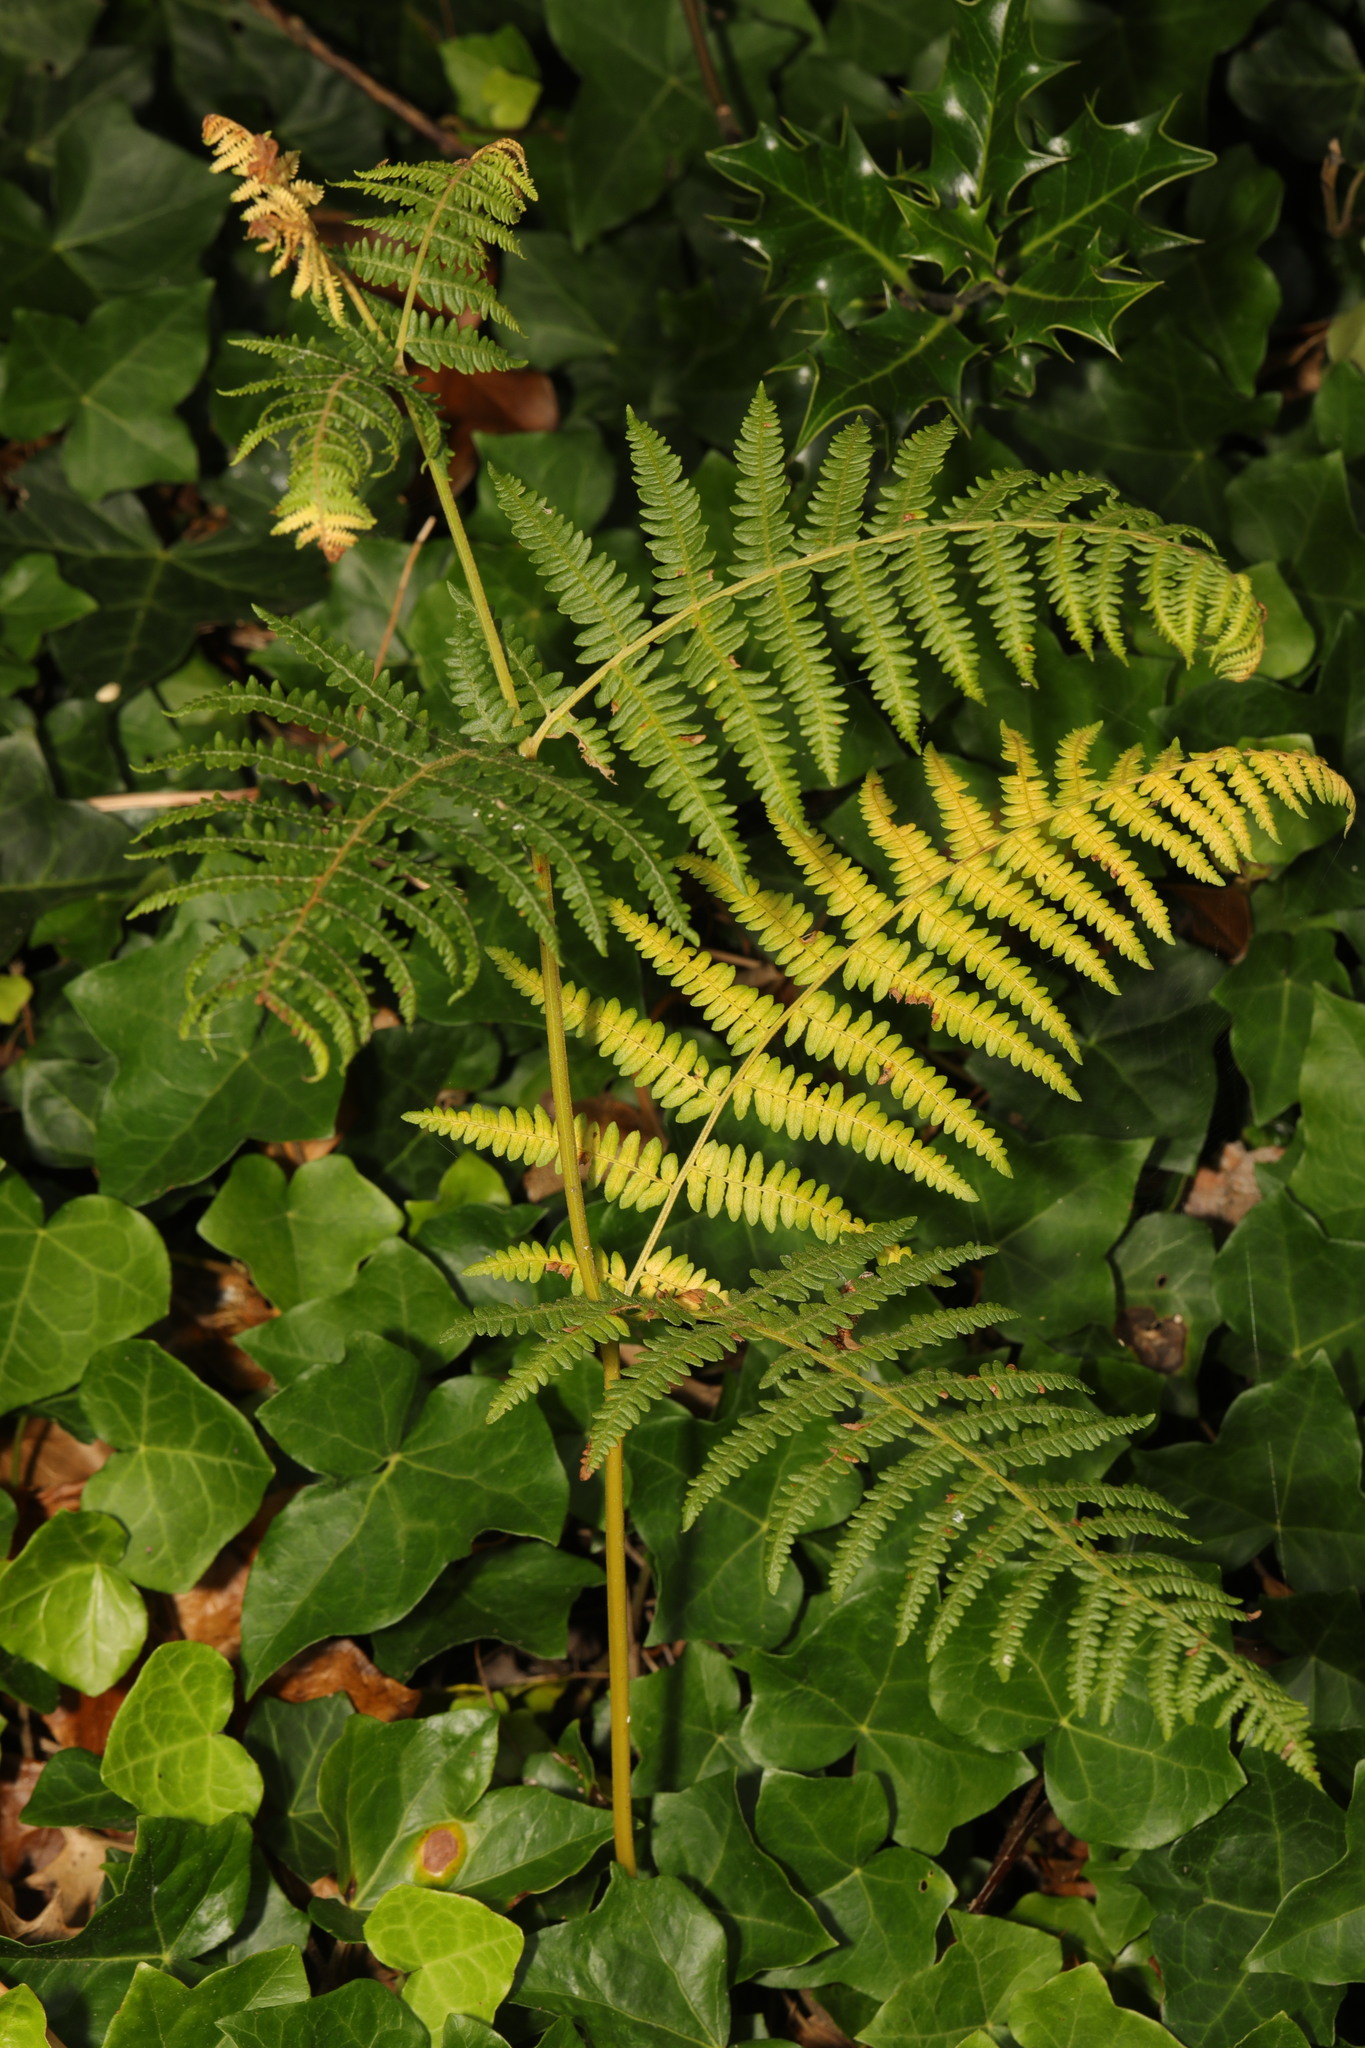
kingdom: Plantae
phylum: Tracheophyta
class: Polypodiopsida
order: Polypodiales
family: Dennstaedtiaceae
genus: Pteridium
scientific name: Pteridium aquilinum
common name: Bracken
